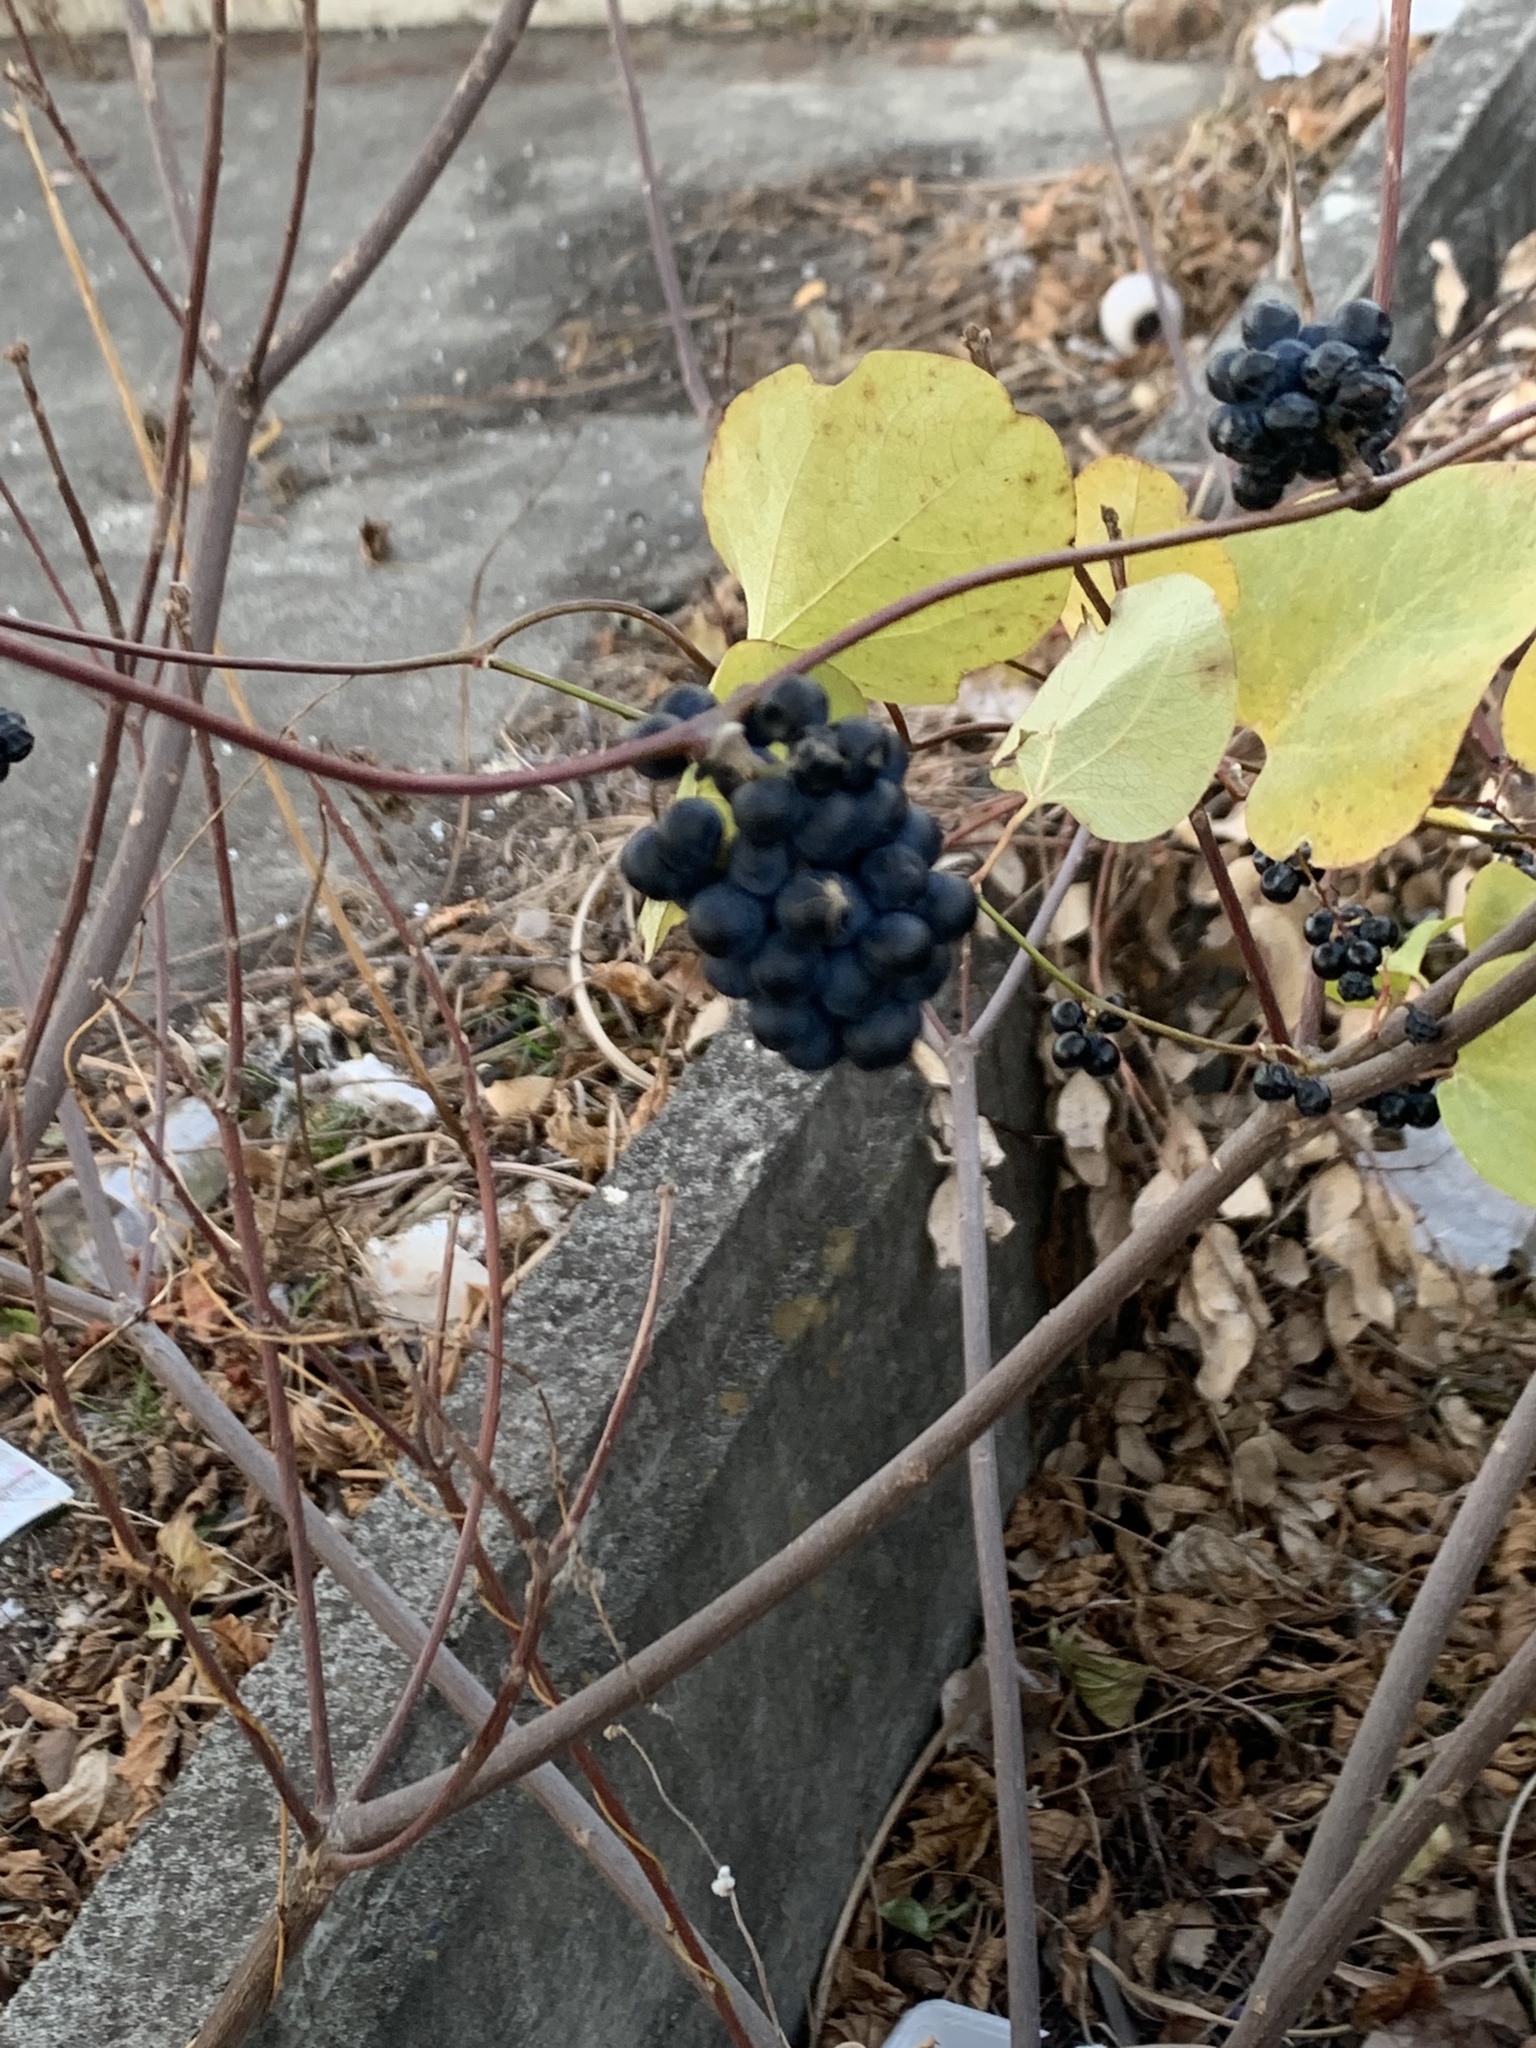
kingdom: Plantae
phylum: Tracheophyta
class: Magnoliopsida
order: Ranunculales
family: Menispermaceae
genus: Cocculus
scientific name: Cocculus orbiculatus
